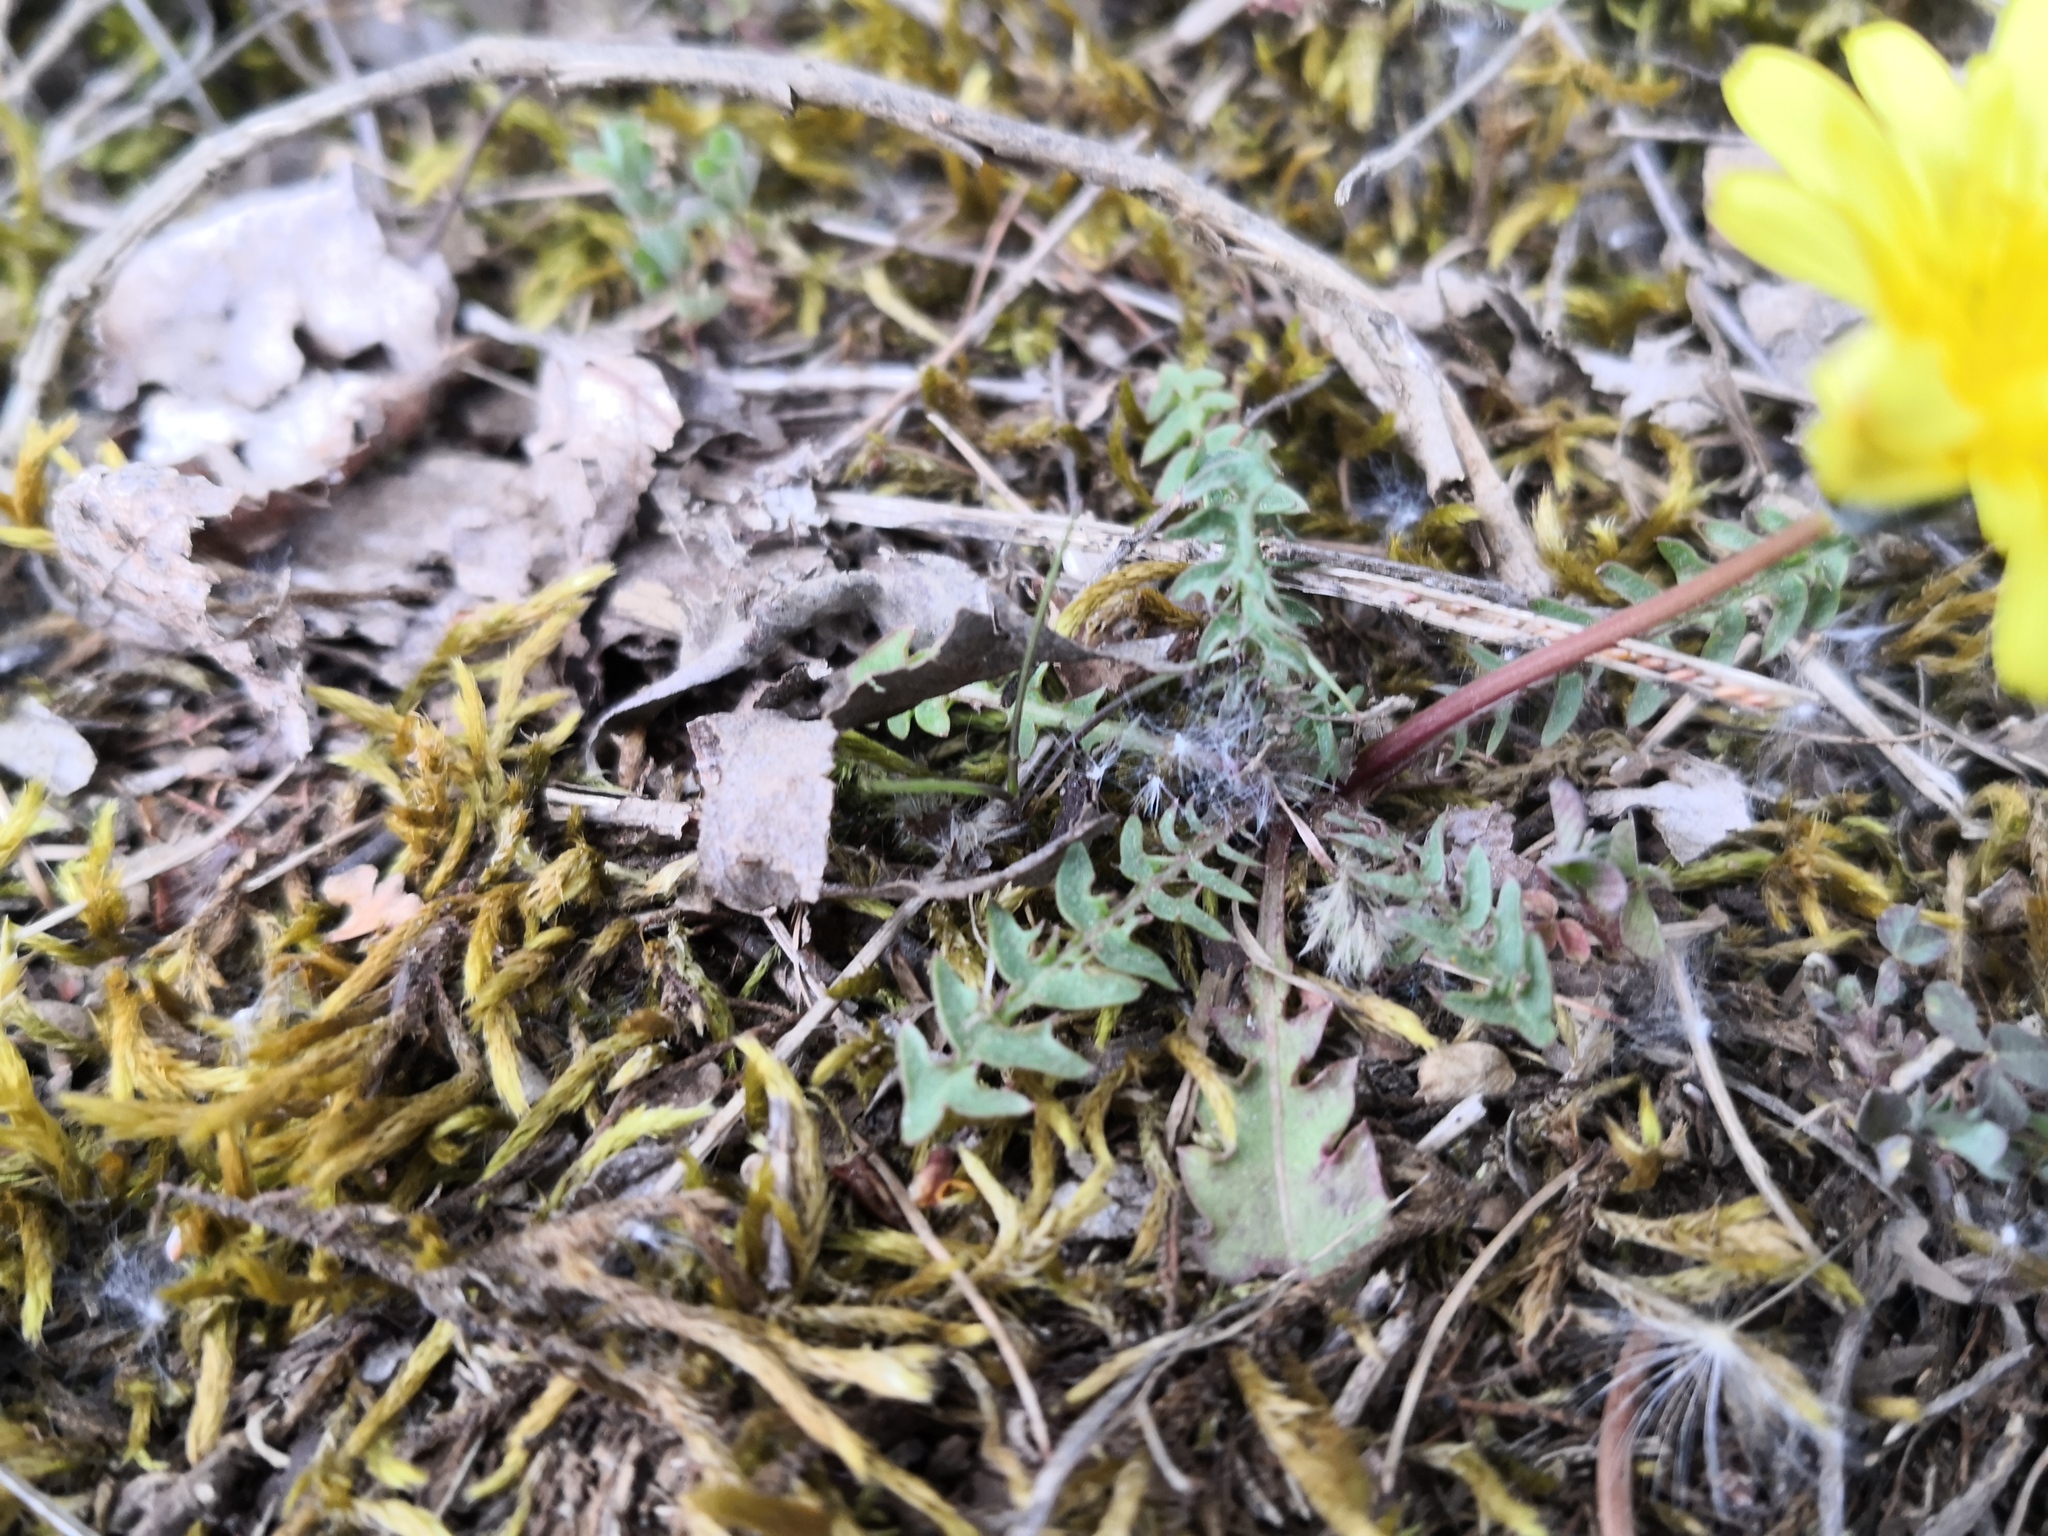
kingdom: Plantae
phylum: Tracheophyta
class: Magnoliopsida
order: Asterales
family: Asteraceae
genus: Taraxacum
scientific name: Taraxacum rubicundum
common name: Ruddy dandelion
